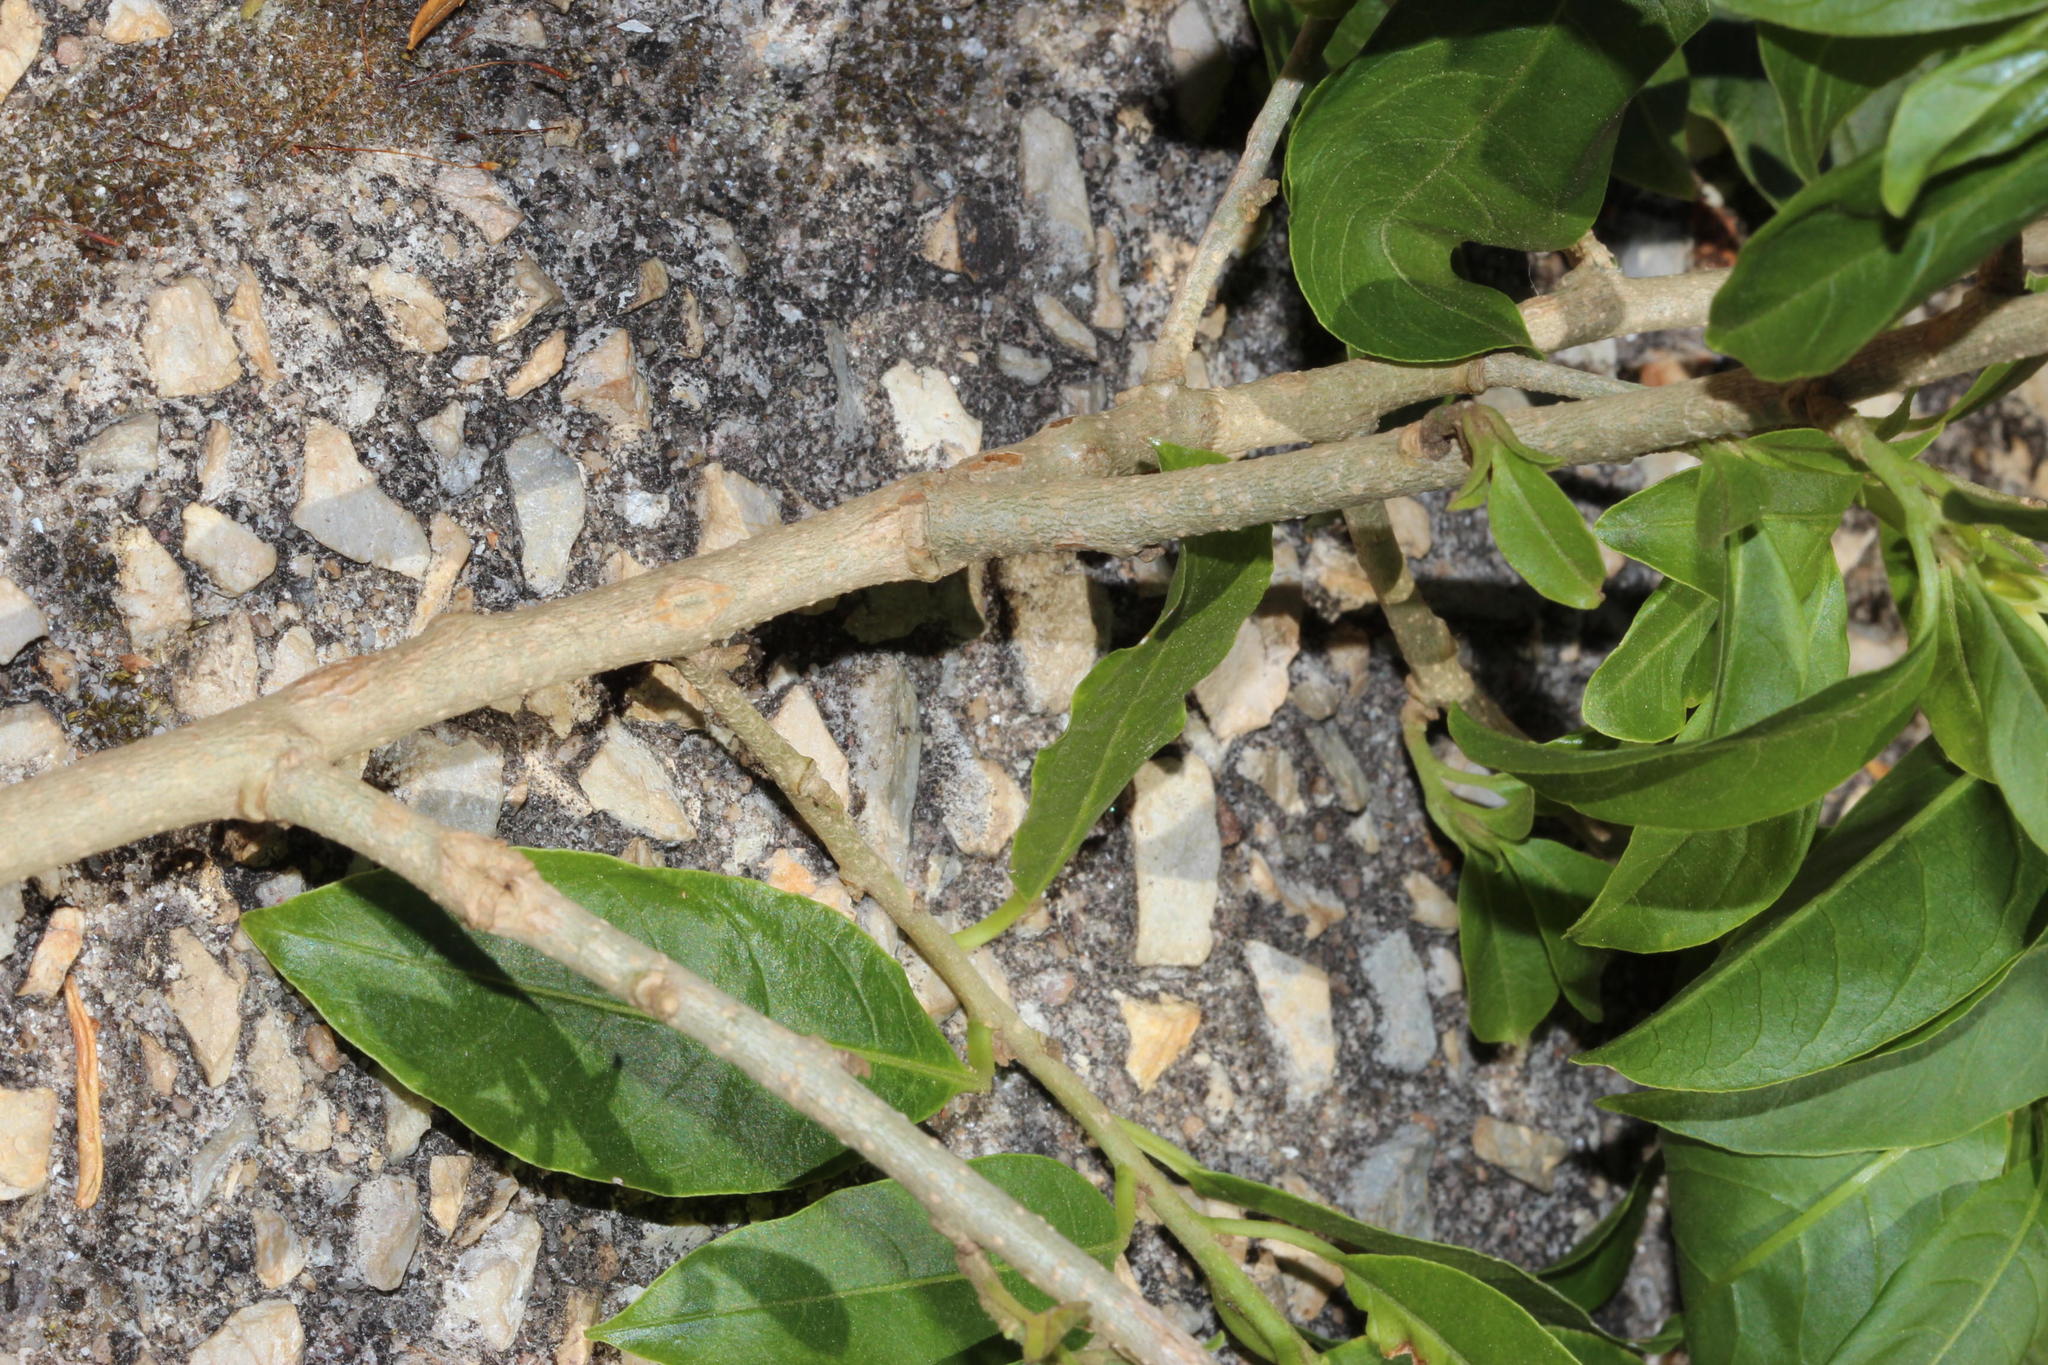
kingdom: Plantae
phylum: Tracheophyta
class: Magnoliopsida
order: Solanales
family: Solanaceae
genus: Cestrum
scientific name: Cestrum laevigatum
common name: Inkberry
